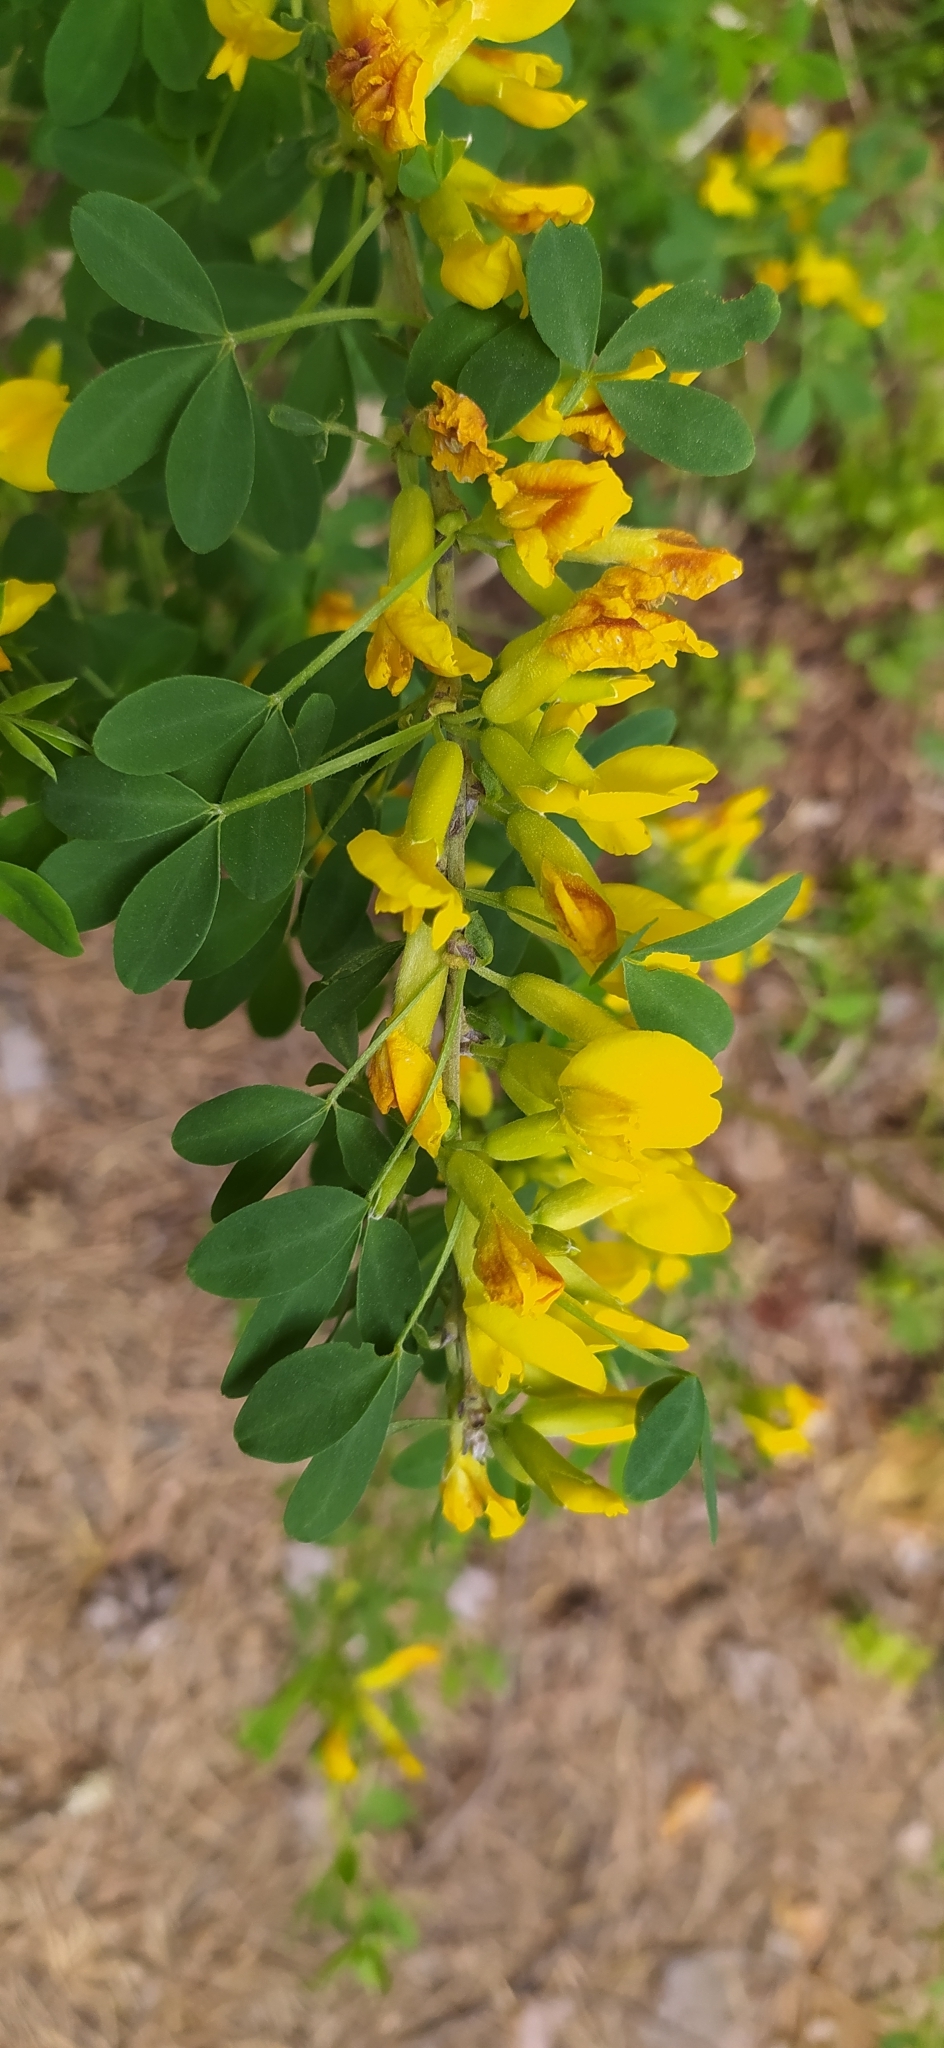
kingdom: Plantae
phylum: Tracheophyta
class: Magnoliopsida
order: Fabales
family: Fabaceae
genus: Chamaecytisus
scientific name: Chamaecytisus ruthenicus
